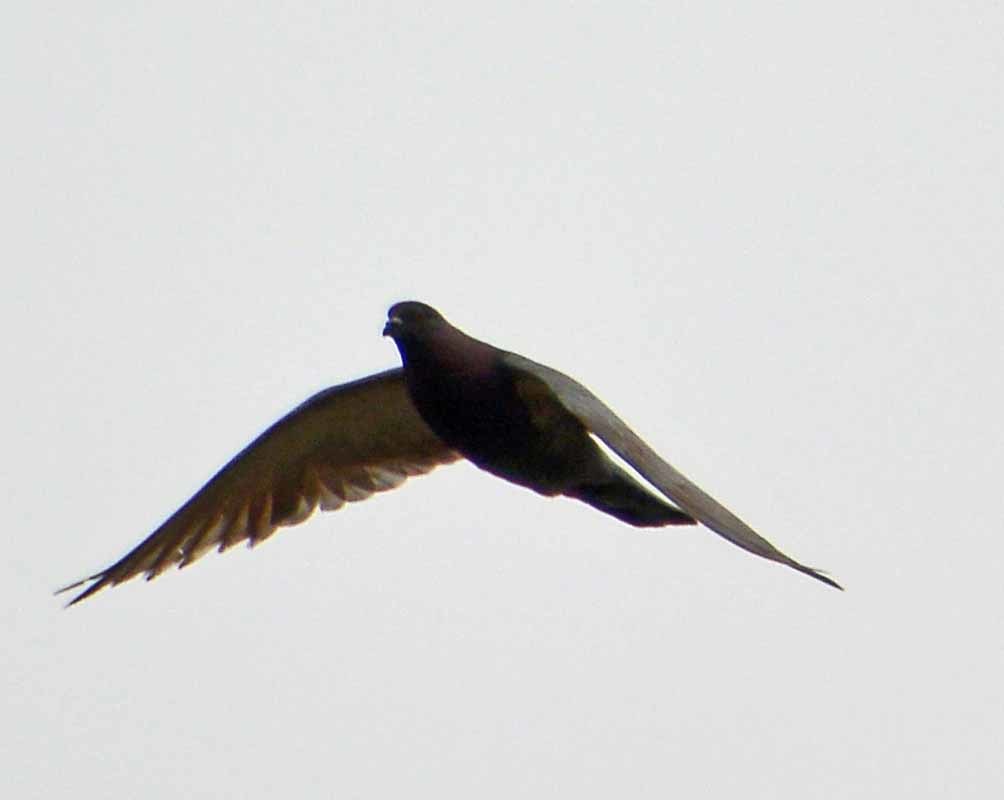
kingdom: Animalia
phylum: Chordata
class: Aves
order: Columbiformes
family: Columbidae
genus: Columba
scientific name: Columba livia
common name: Rock pigeon
